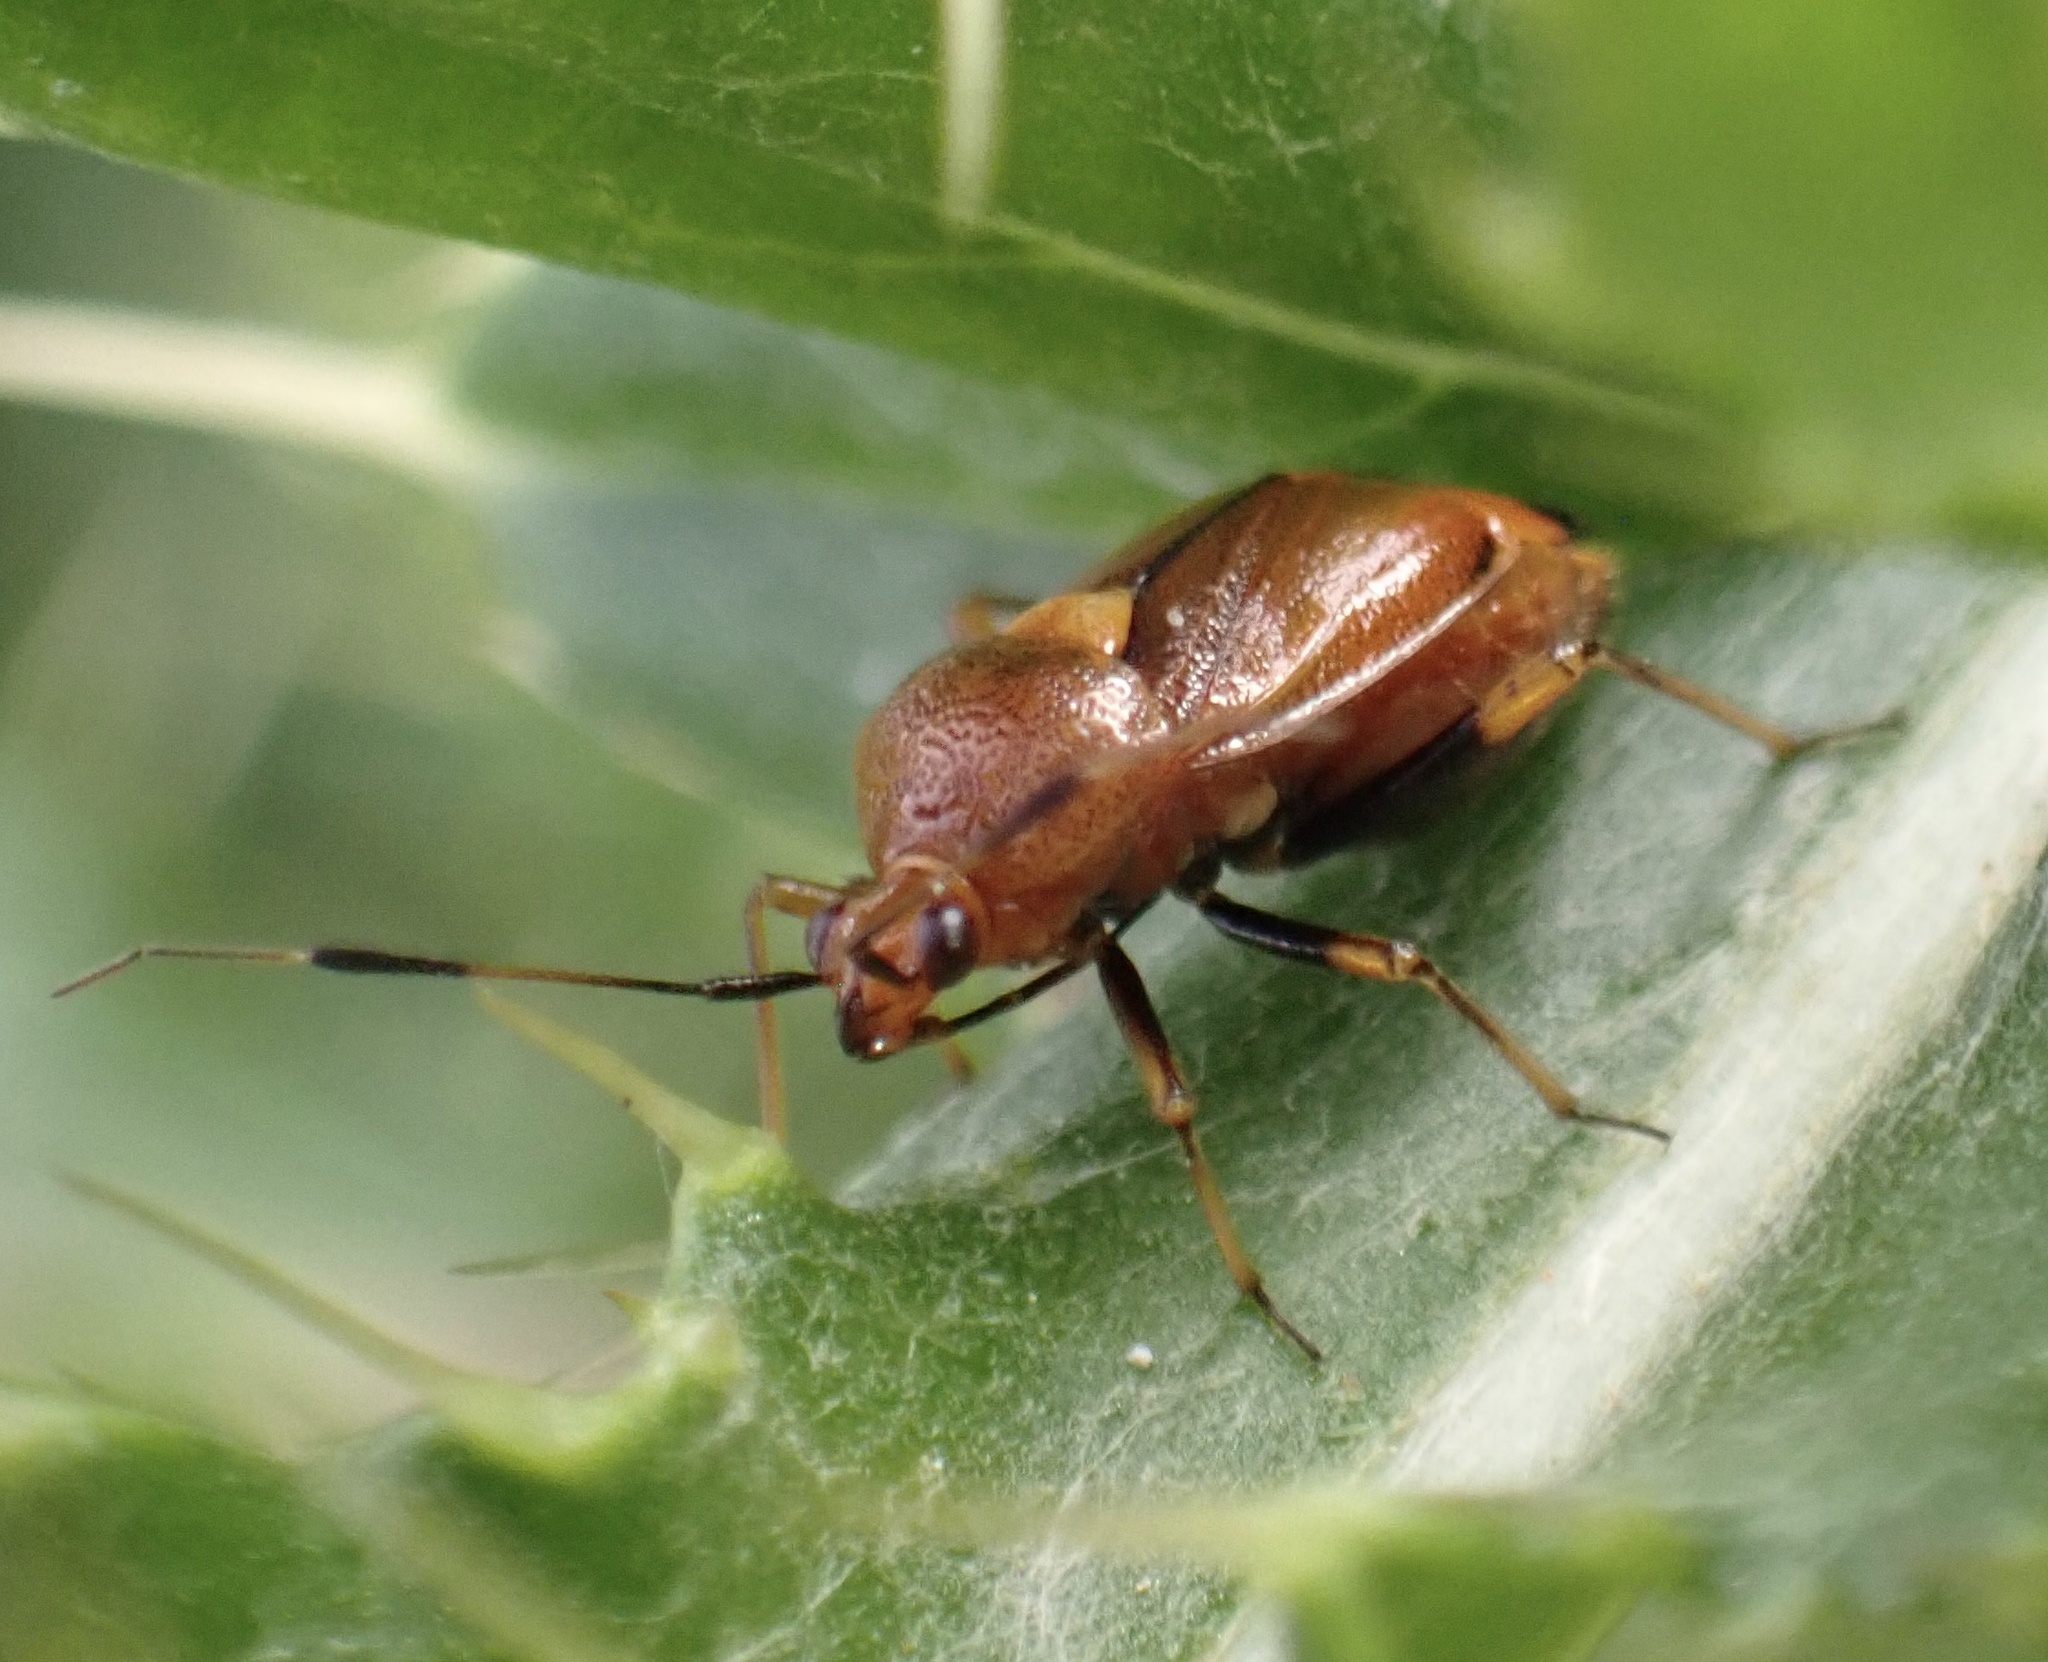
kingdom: Animalia
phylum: Arthropoda
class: Insecta
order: Hemiptera
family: Miridae
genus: Deraeocoris
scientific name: Deraeocoris ruber
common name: Plant bug
